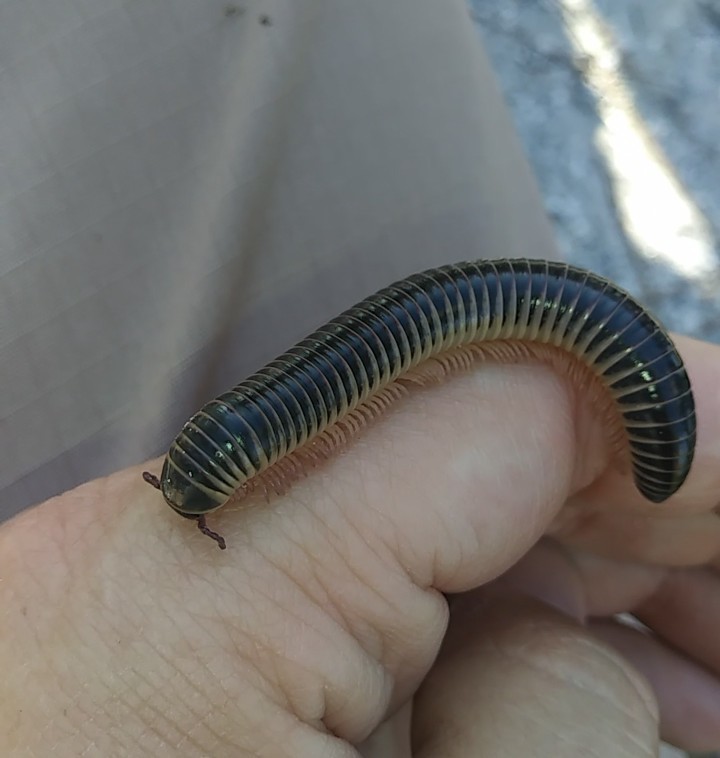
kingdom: Animalia
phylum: Arthropoda
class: Diplopoda
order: Spirobolida
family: Spirobolidae
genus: Chicobolus
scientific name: Chicobolus spinigerus
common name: Florida ivory millipede
